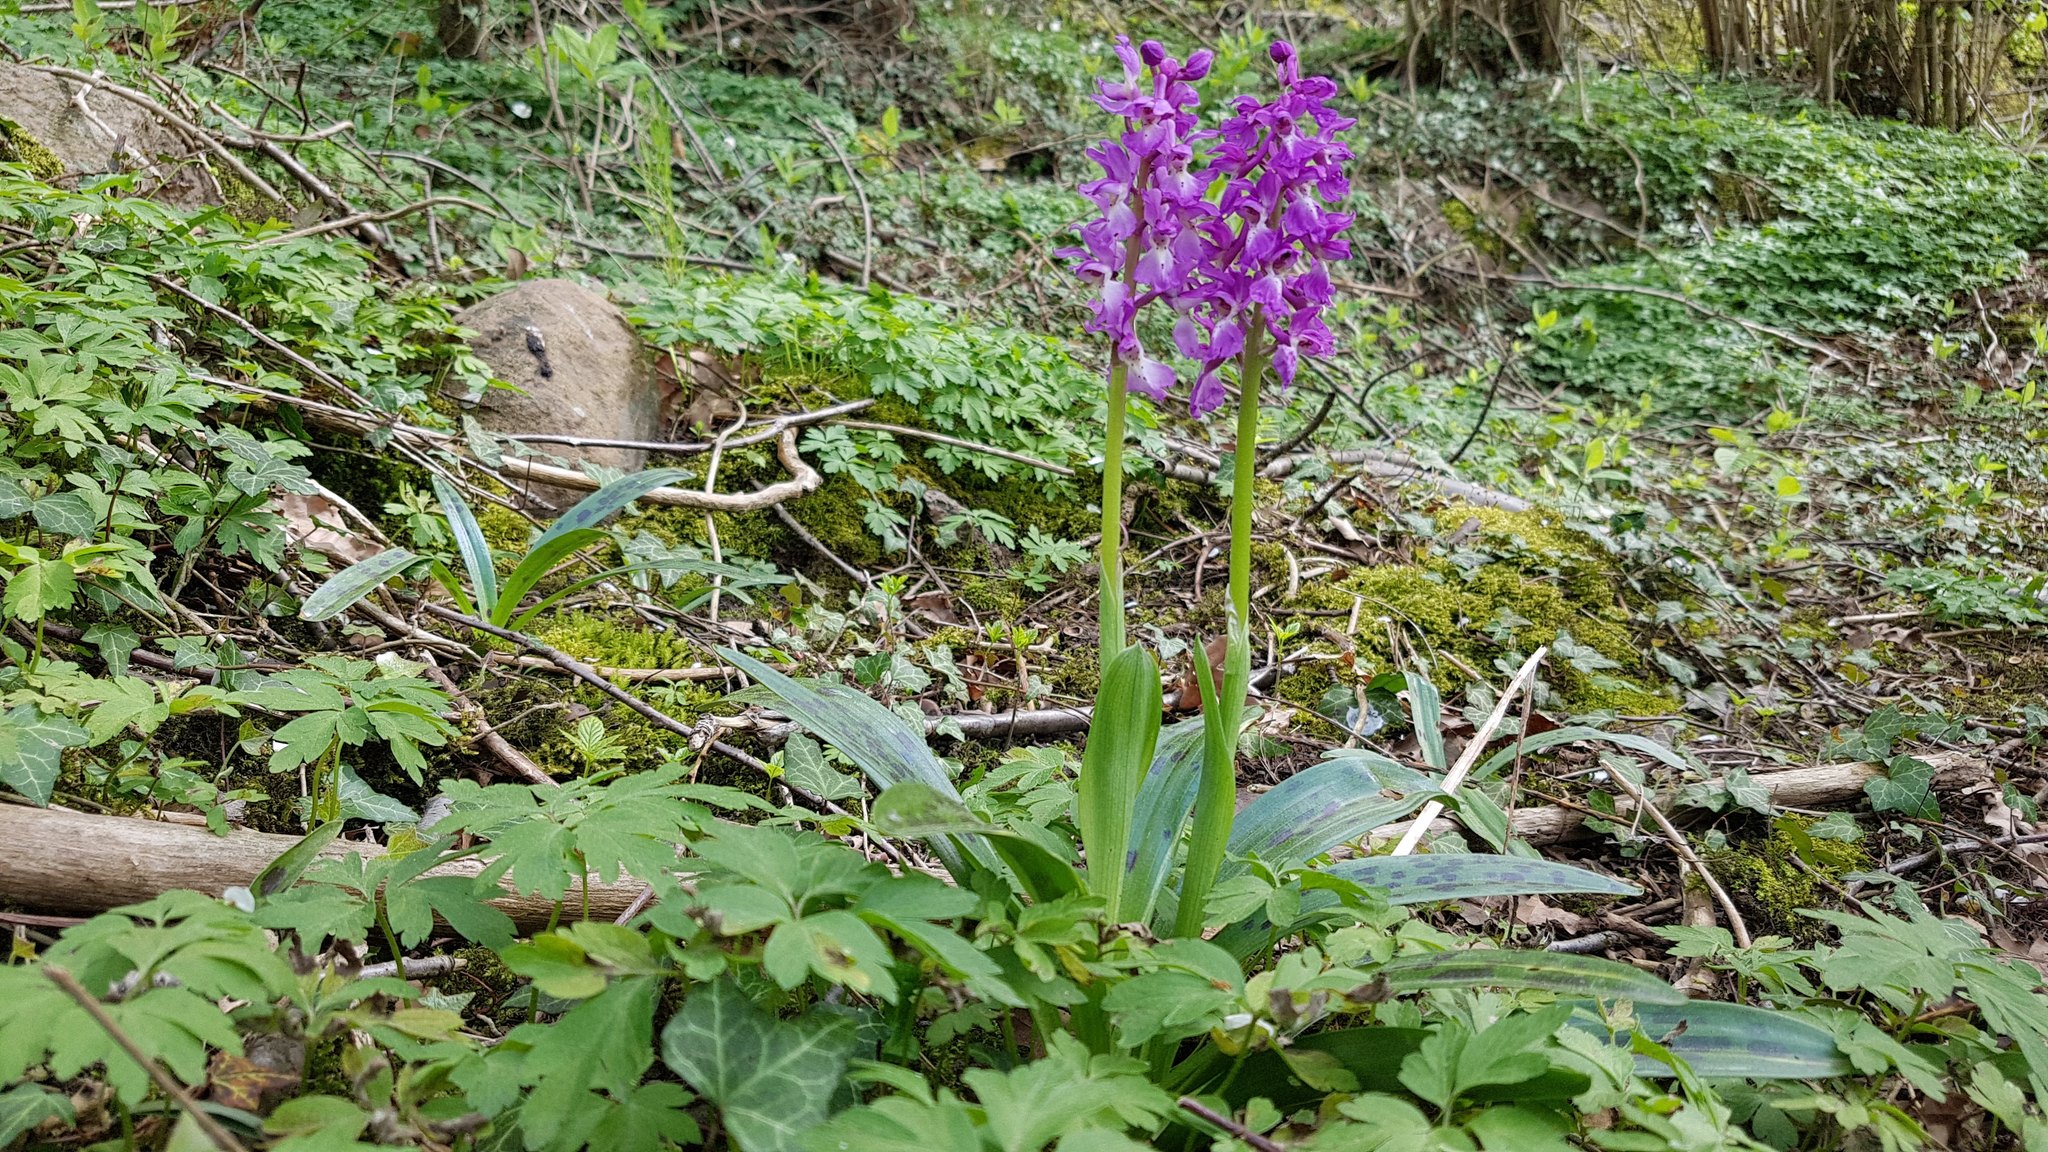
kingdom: Plantae
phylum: Tracheophyta
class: Liliopsida
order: Asparagales
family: Orchidaceae
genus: Orchis
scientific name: Orchis mascula
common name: Early-purple orchid
